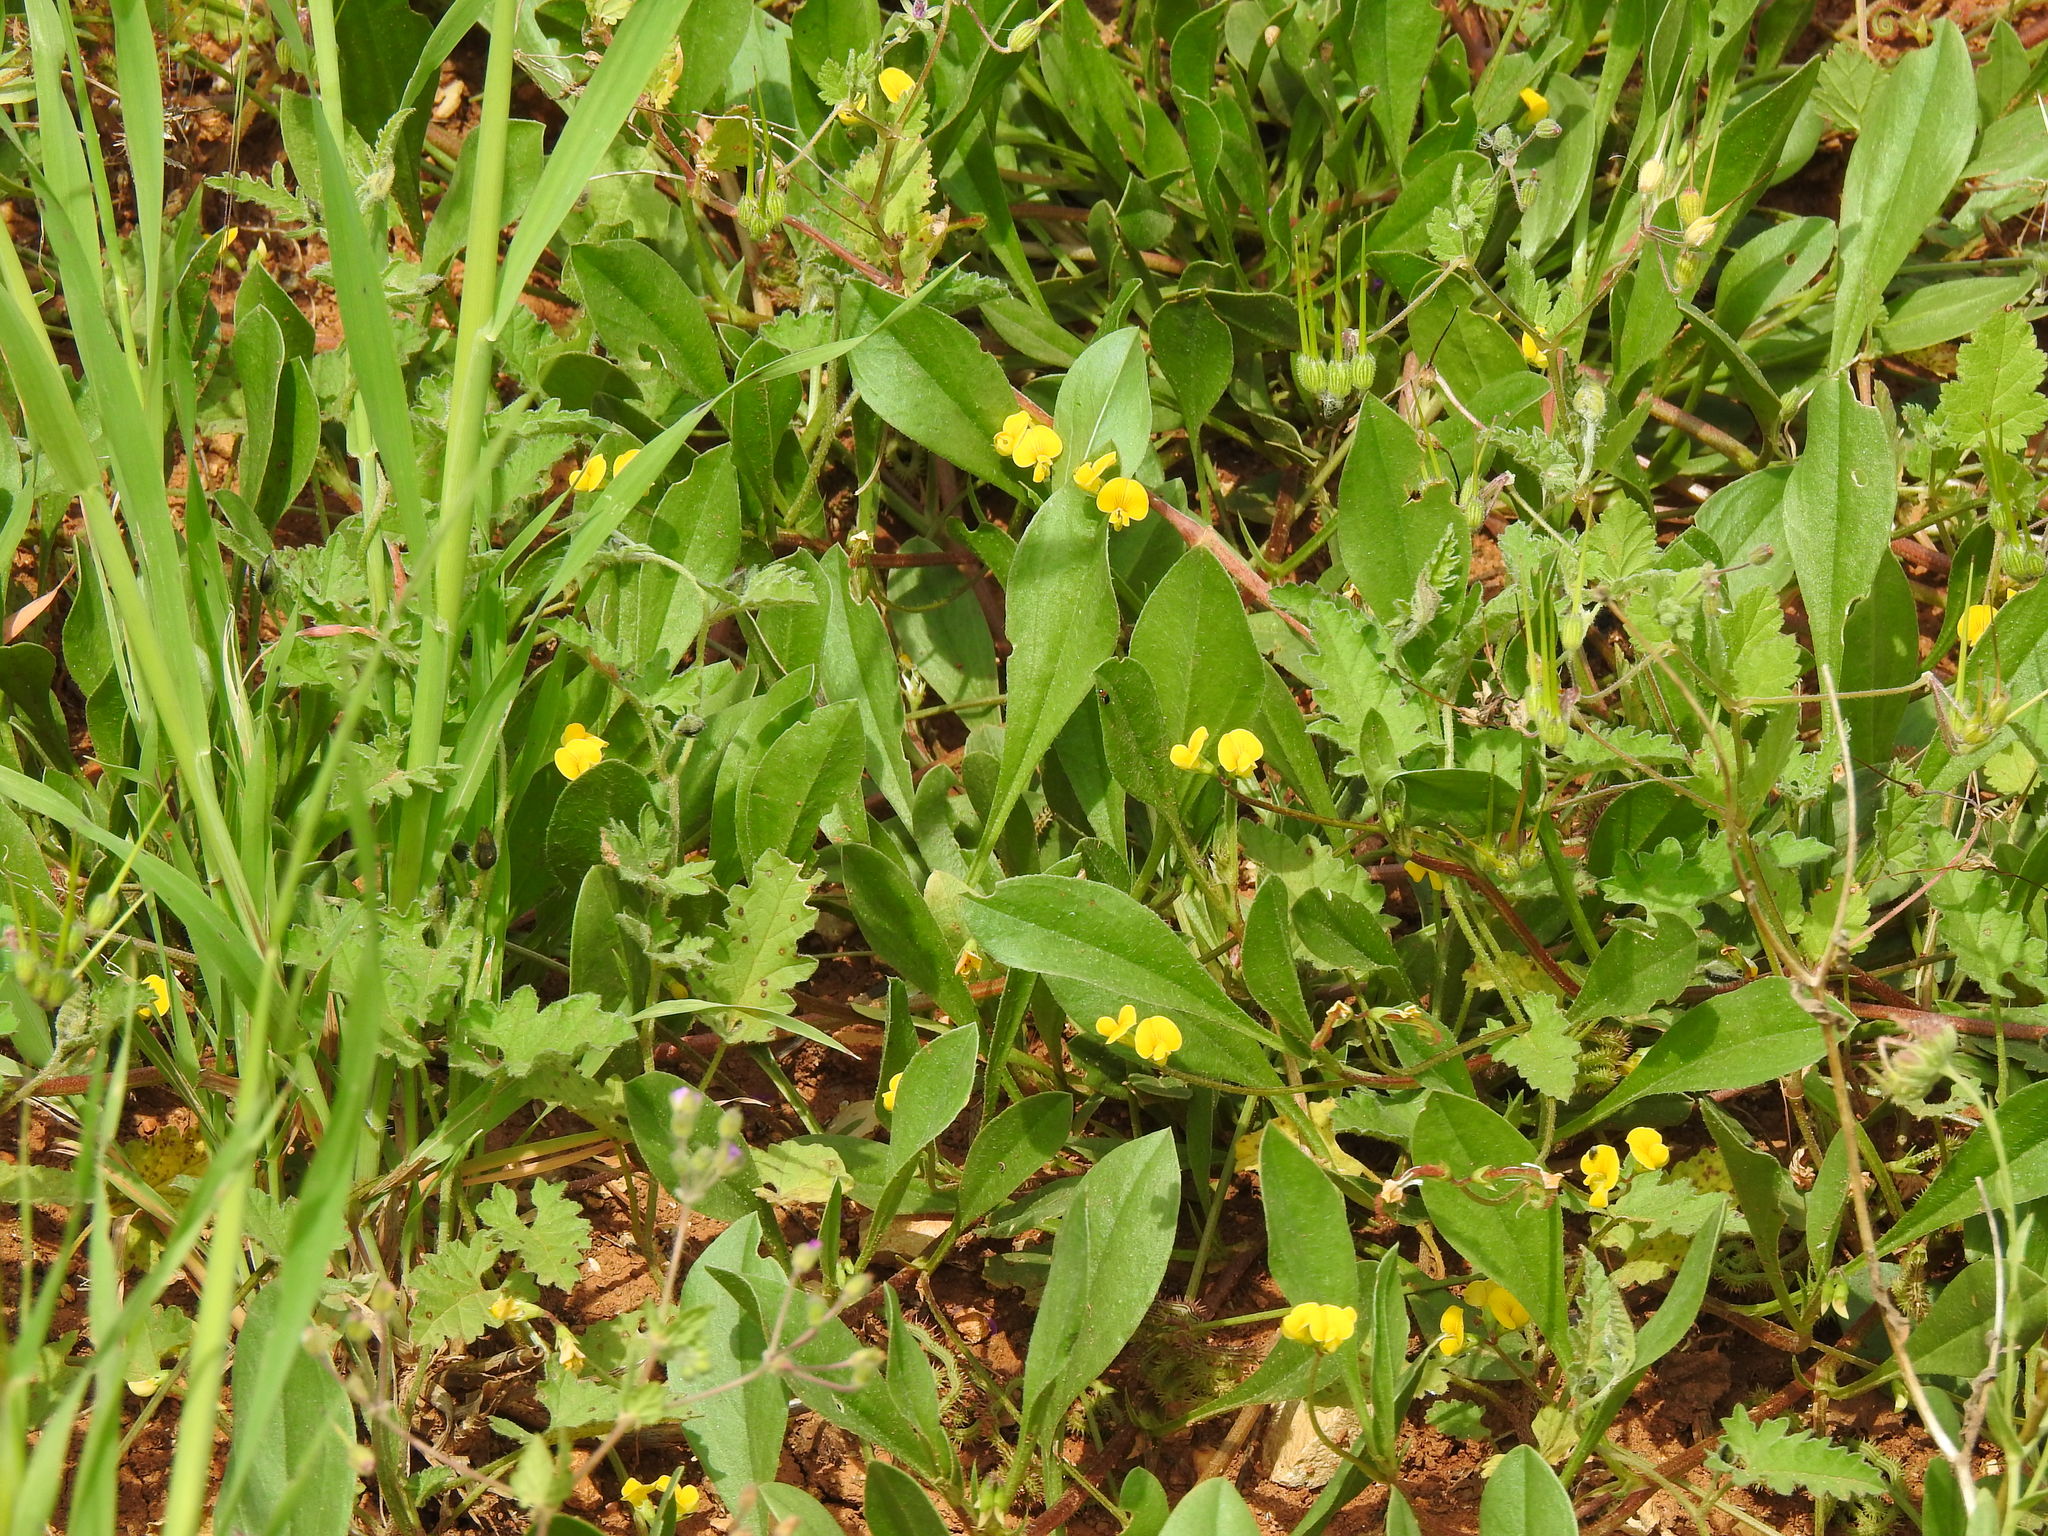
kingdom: Plantae
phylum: Tracheophyta
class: Magnoliopsida
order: Fabales
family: Fabaceae
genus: Scorpiurus
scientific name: Scorpiurus muricatus
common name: Caterpillar-plant
